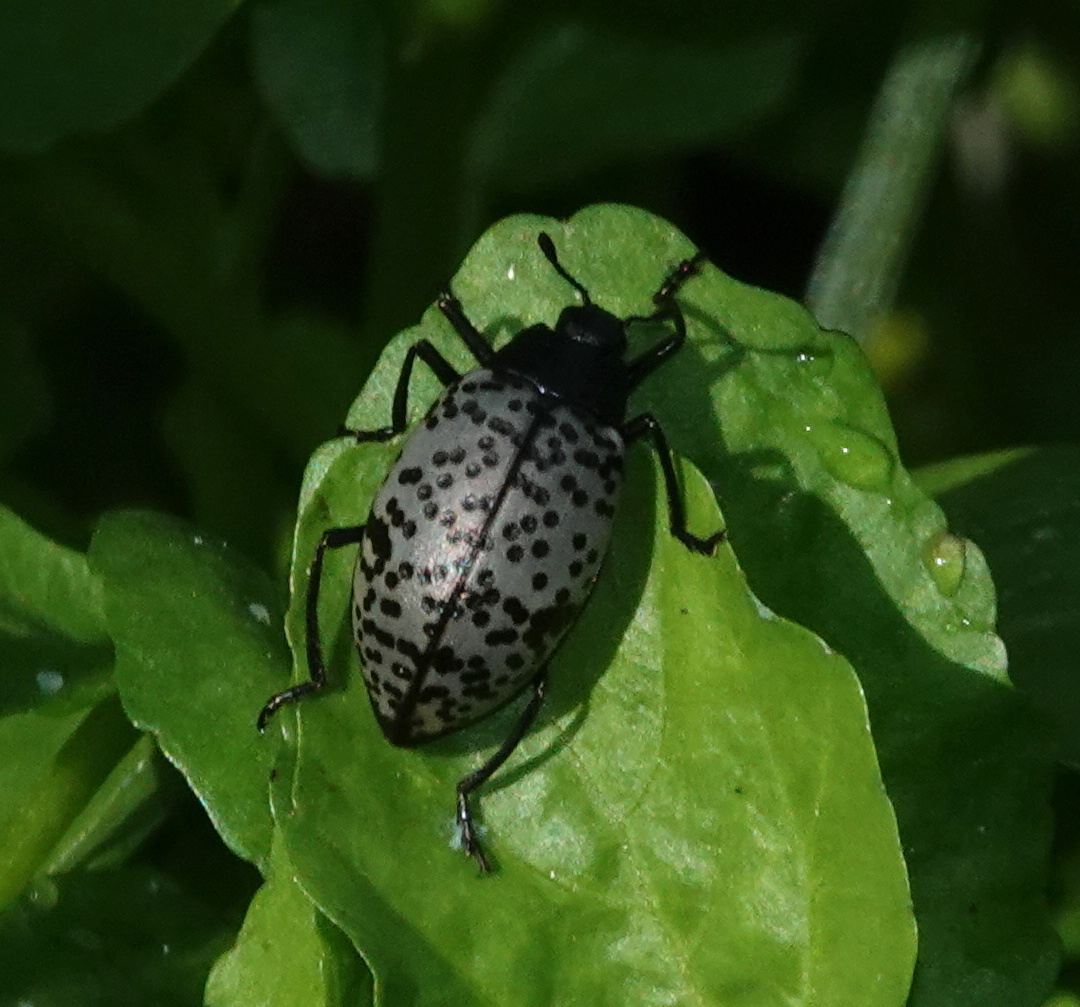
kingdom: Animalia
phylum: Arthropoda
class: Insecta
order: Coleoptera
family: Erotylidae
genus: Gibbifer
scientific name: Gibbifer californicus
